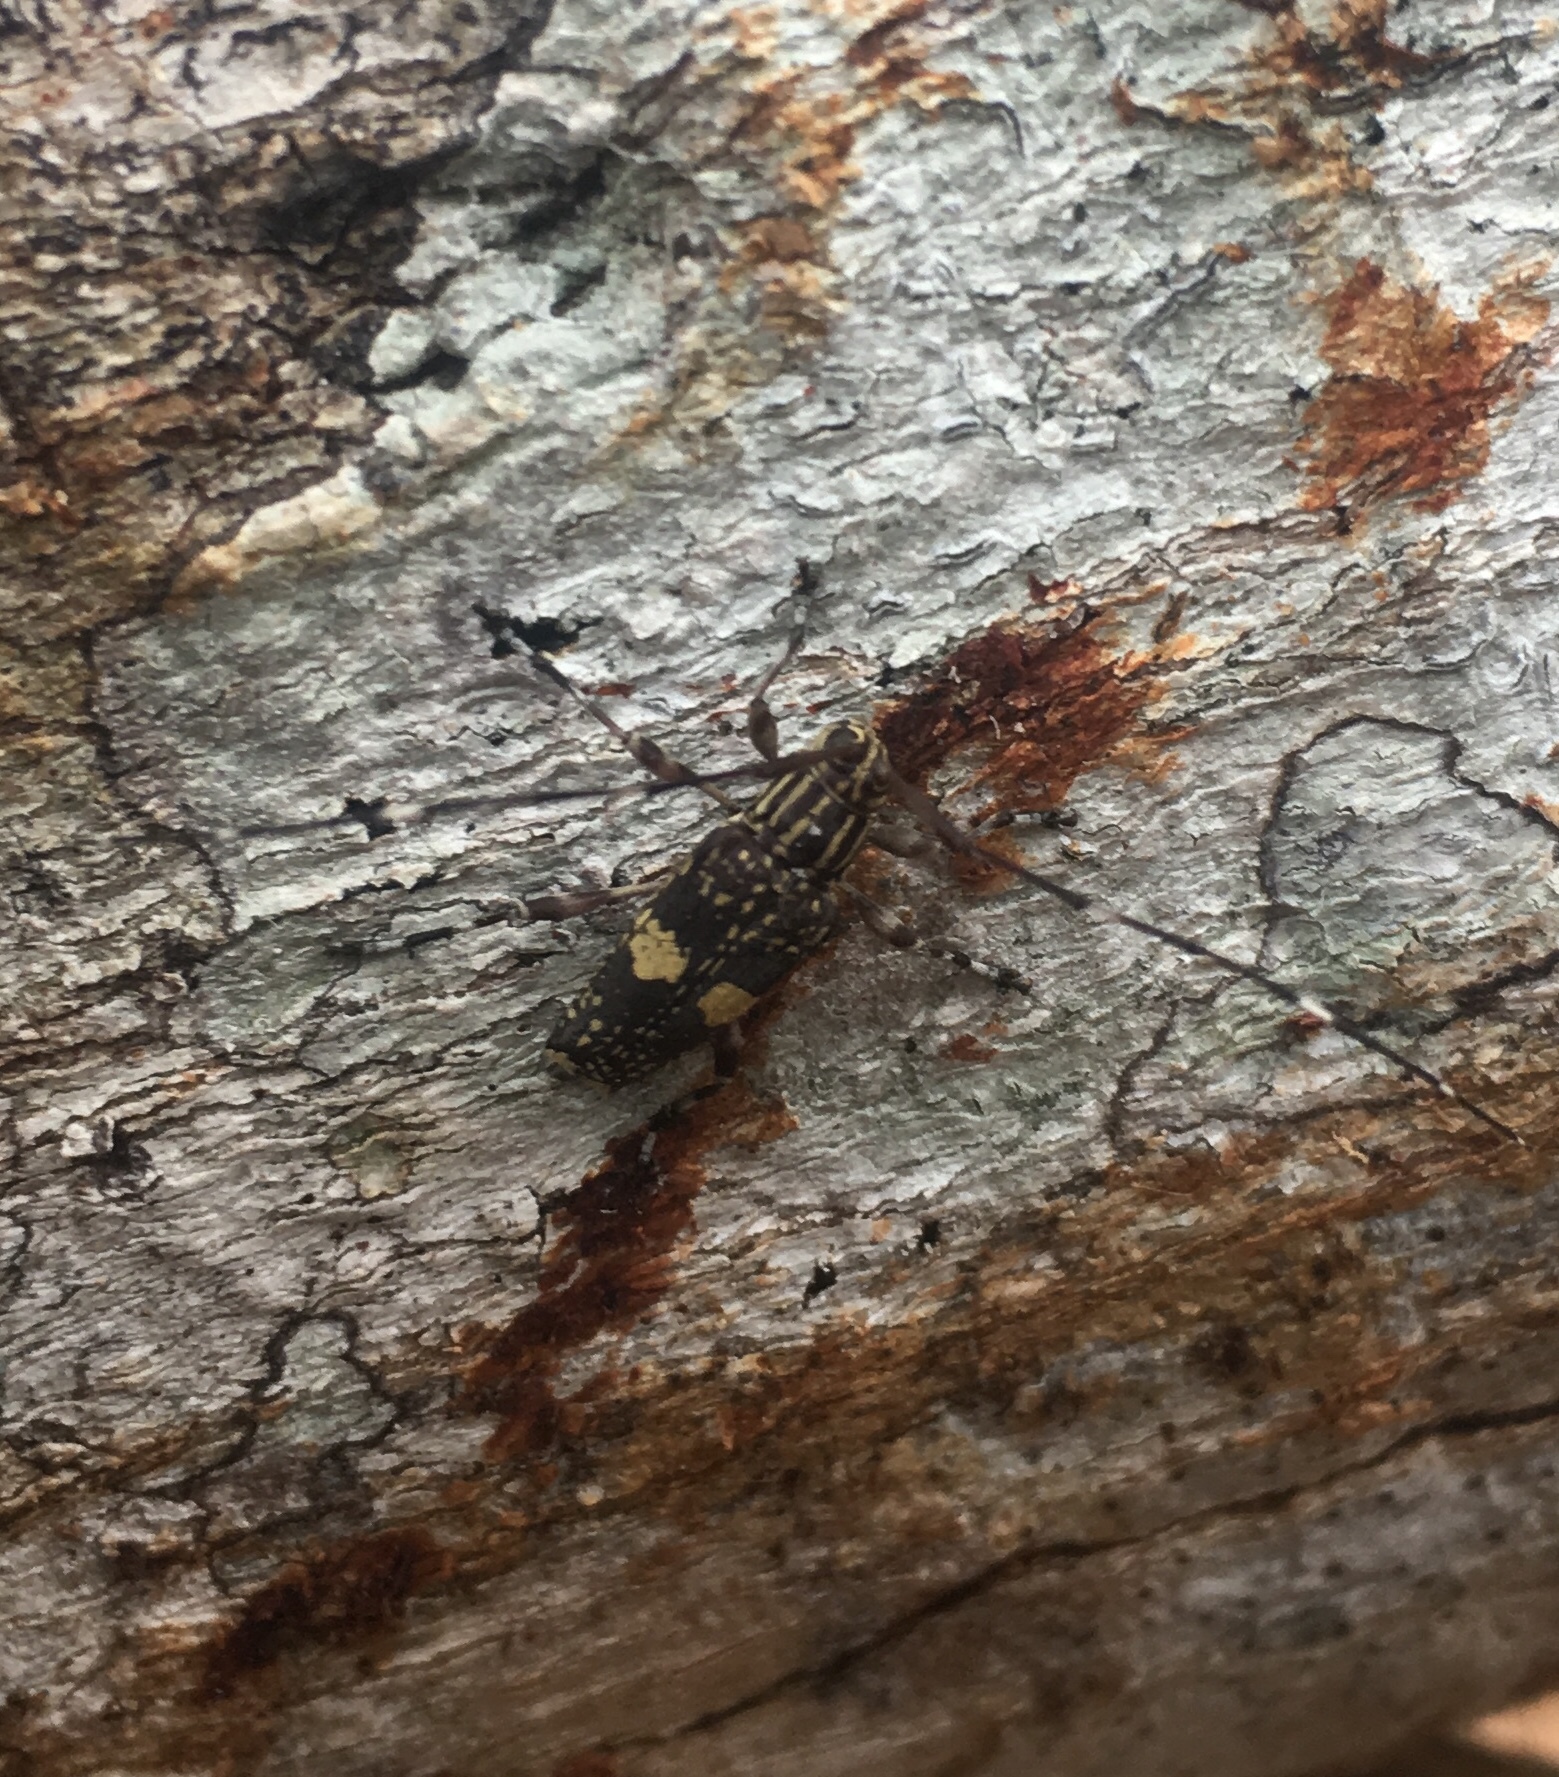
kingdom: Animalia
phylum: Arthropoda
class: Insecta
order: Coleoptera
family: Cerambycidae
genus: Colobothea
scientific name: Colobothea sejuncta
